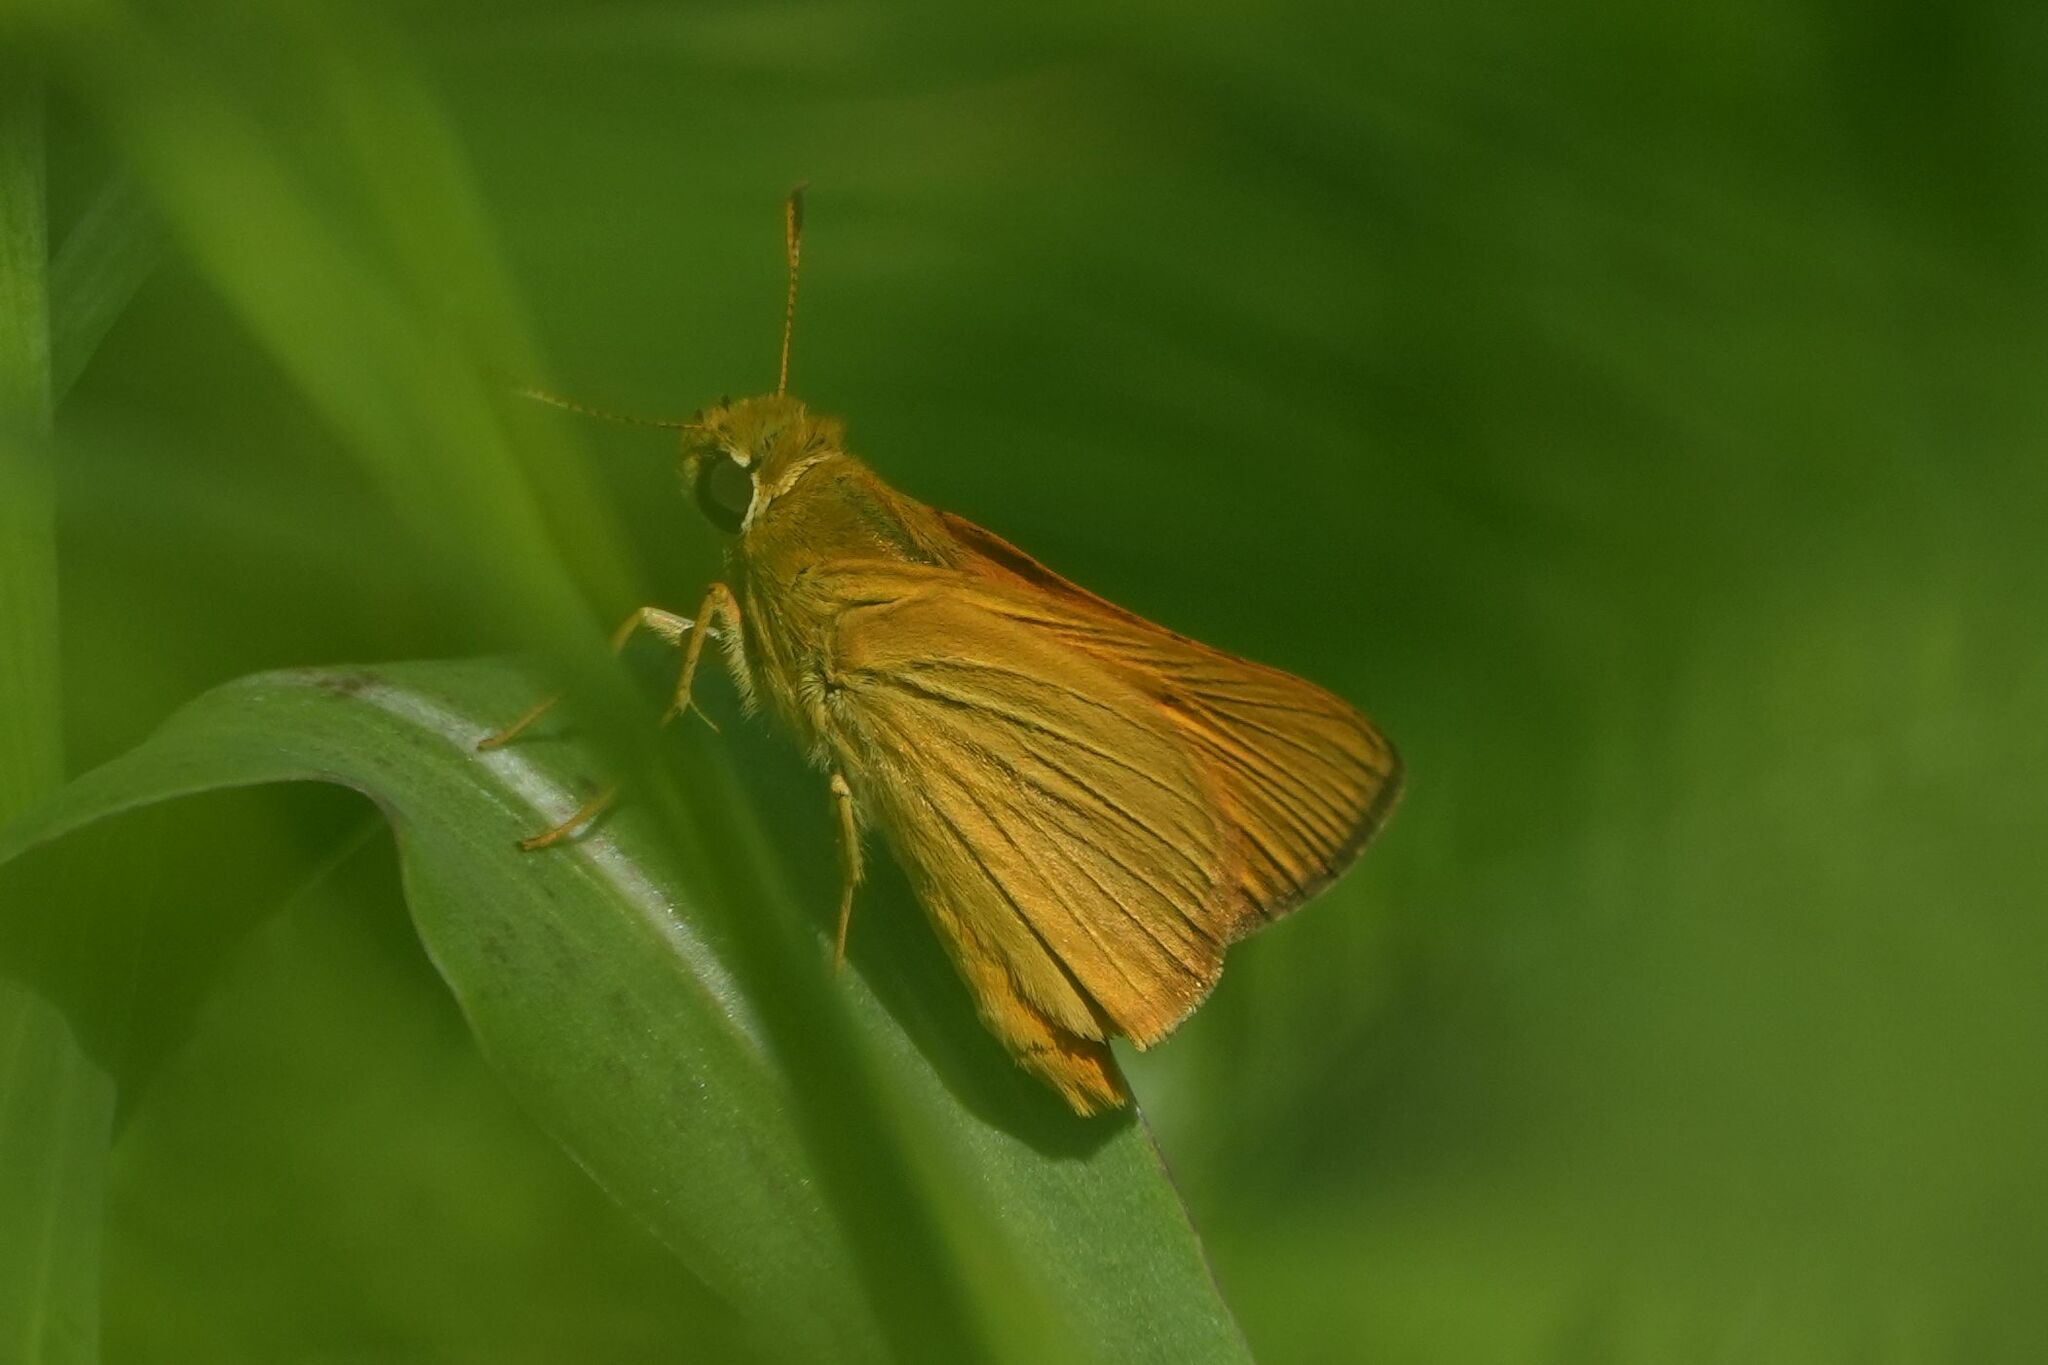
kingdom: Animalia
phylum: Arthropoda
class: Insecta
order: Lepidoptera
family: Hesperiidae
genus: Atrytone
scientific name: Atrytone delaware
